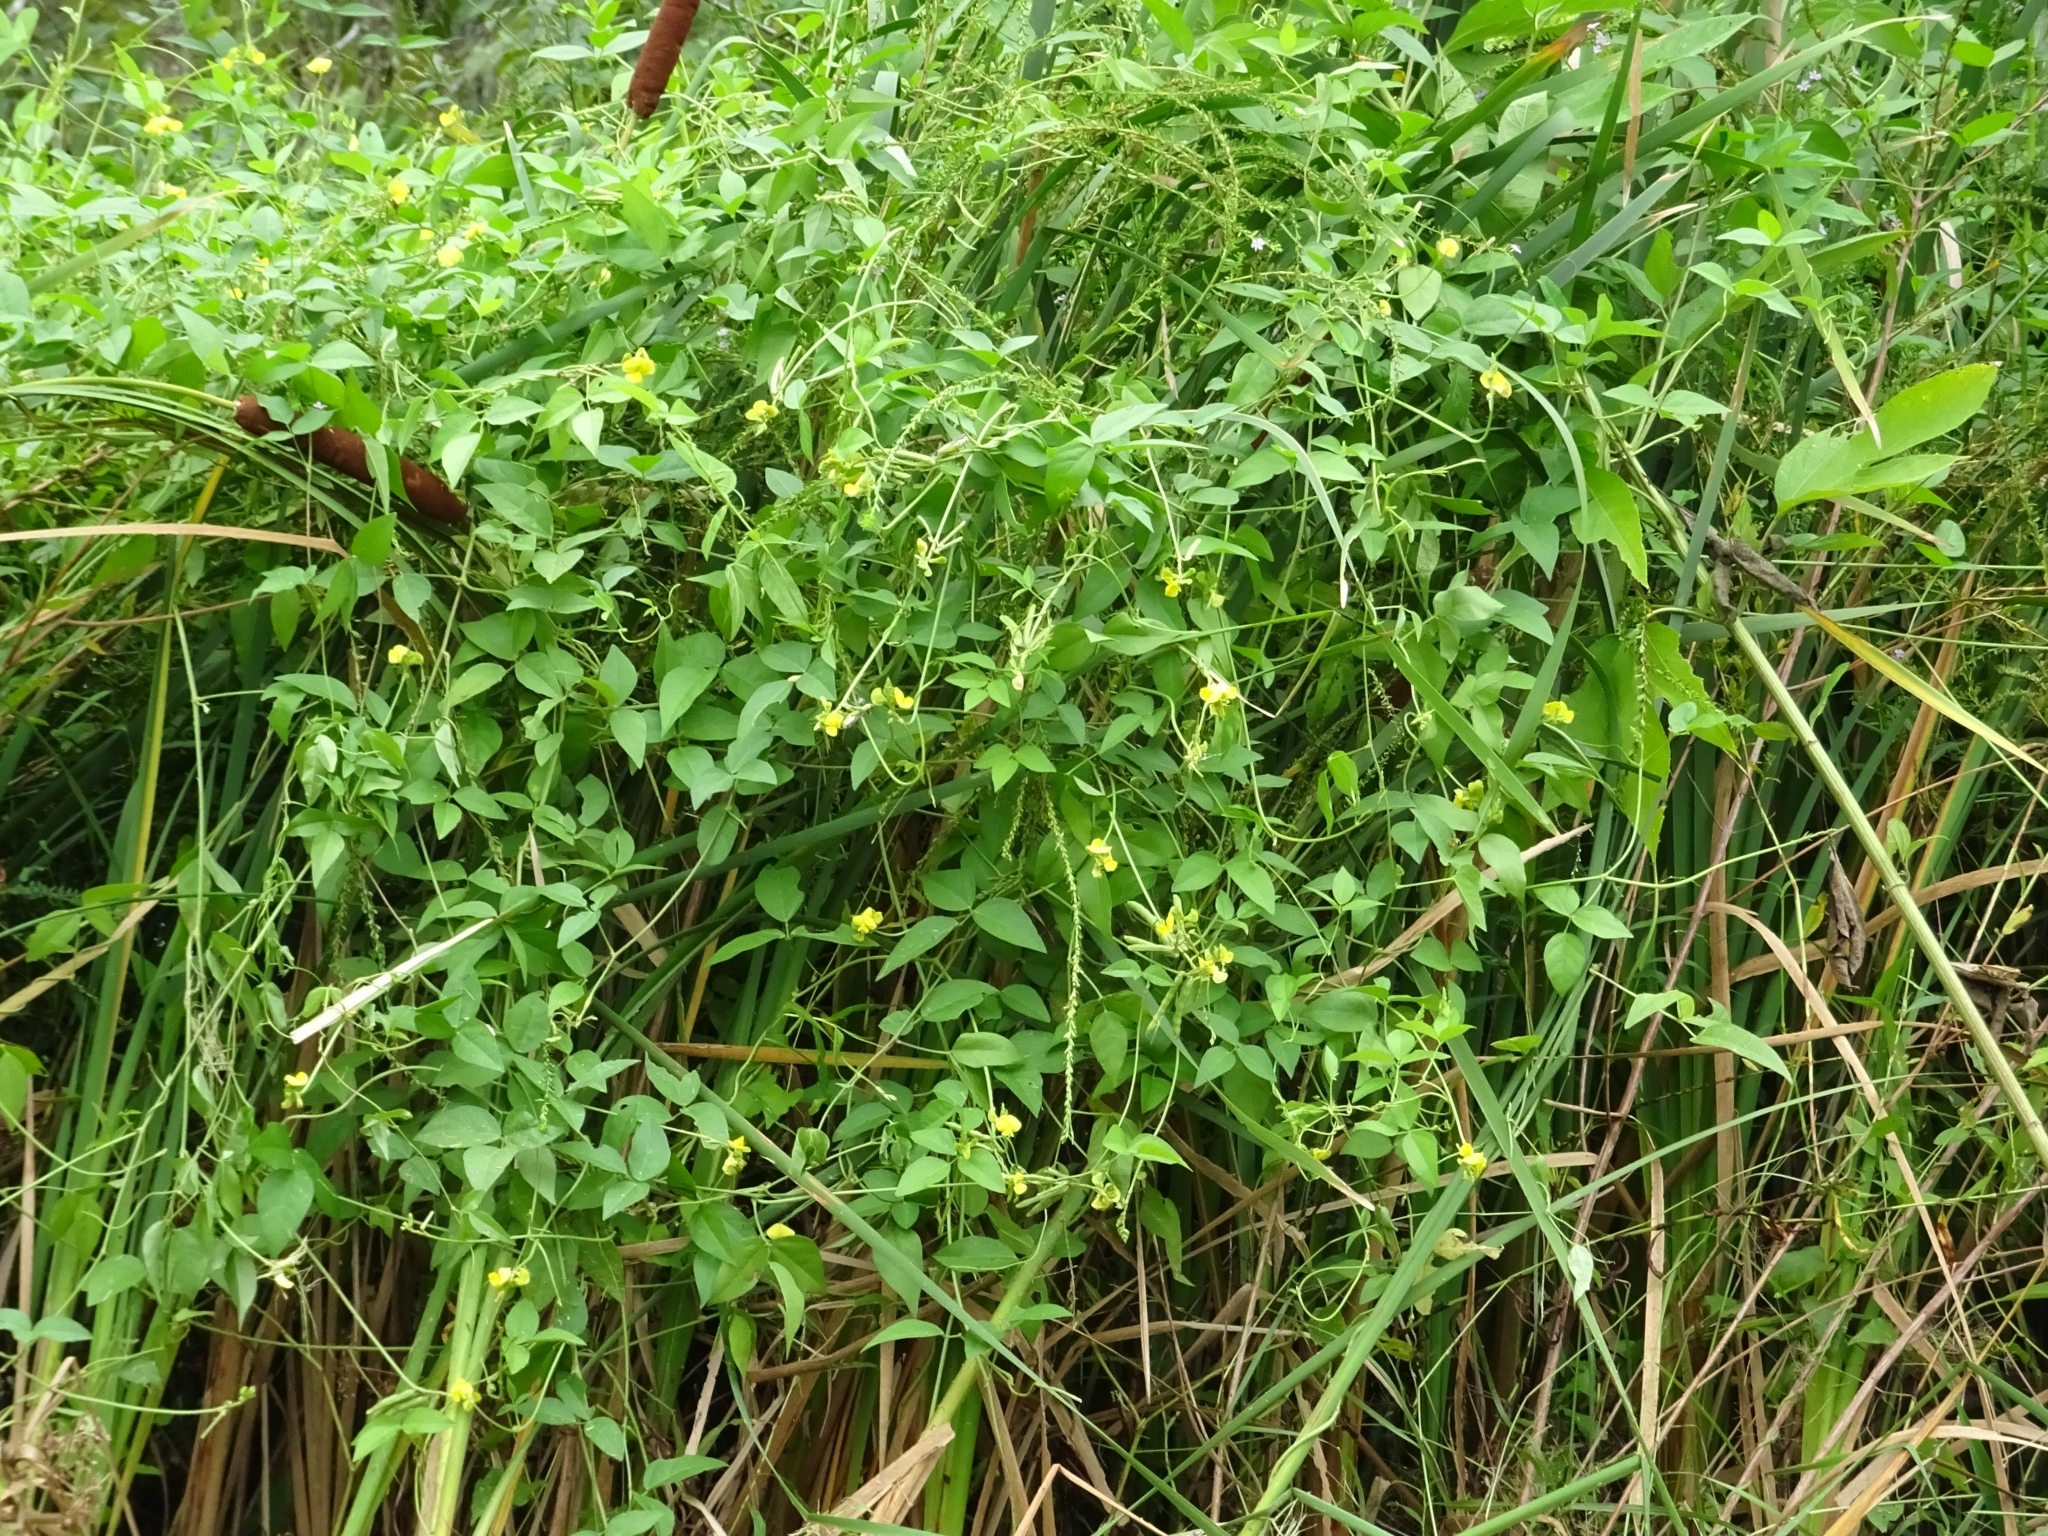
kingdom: Plantae
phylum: Tracheophyta
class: Magnoliopsida
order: Fabales
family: Fabaceae
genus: Vigna
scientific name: Vigna luteola
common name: Hairypod cowpea
